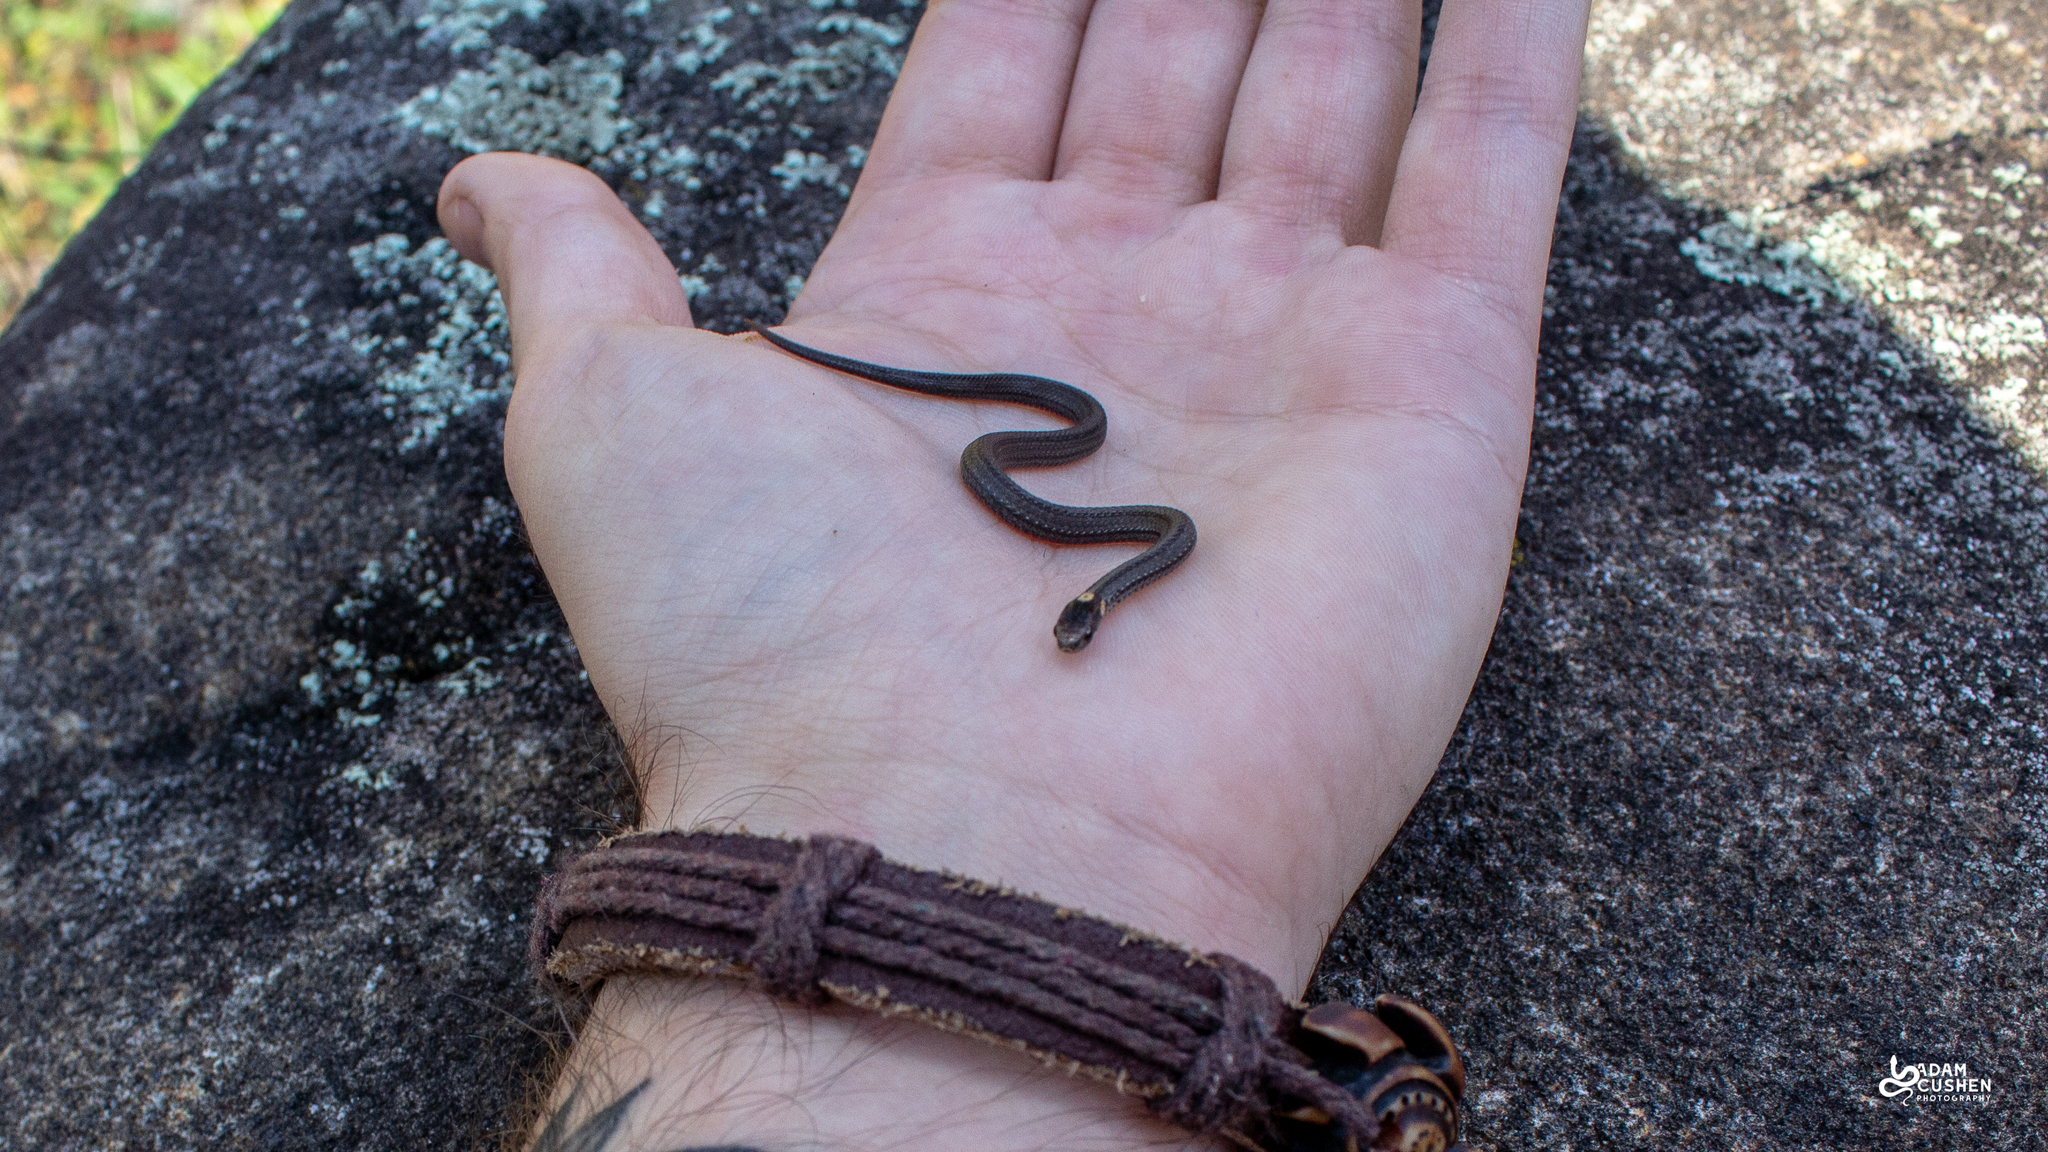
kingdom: Animalia
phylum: Chordata
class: Squamata
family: Colubridae
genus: Storeria
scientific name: Storeria occipitomaculata
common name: Redbelly snake
